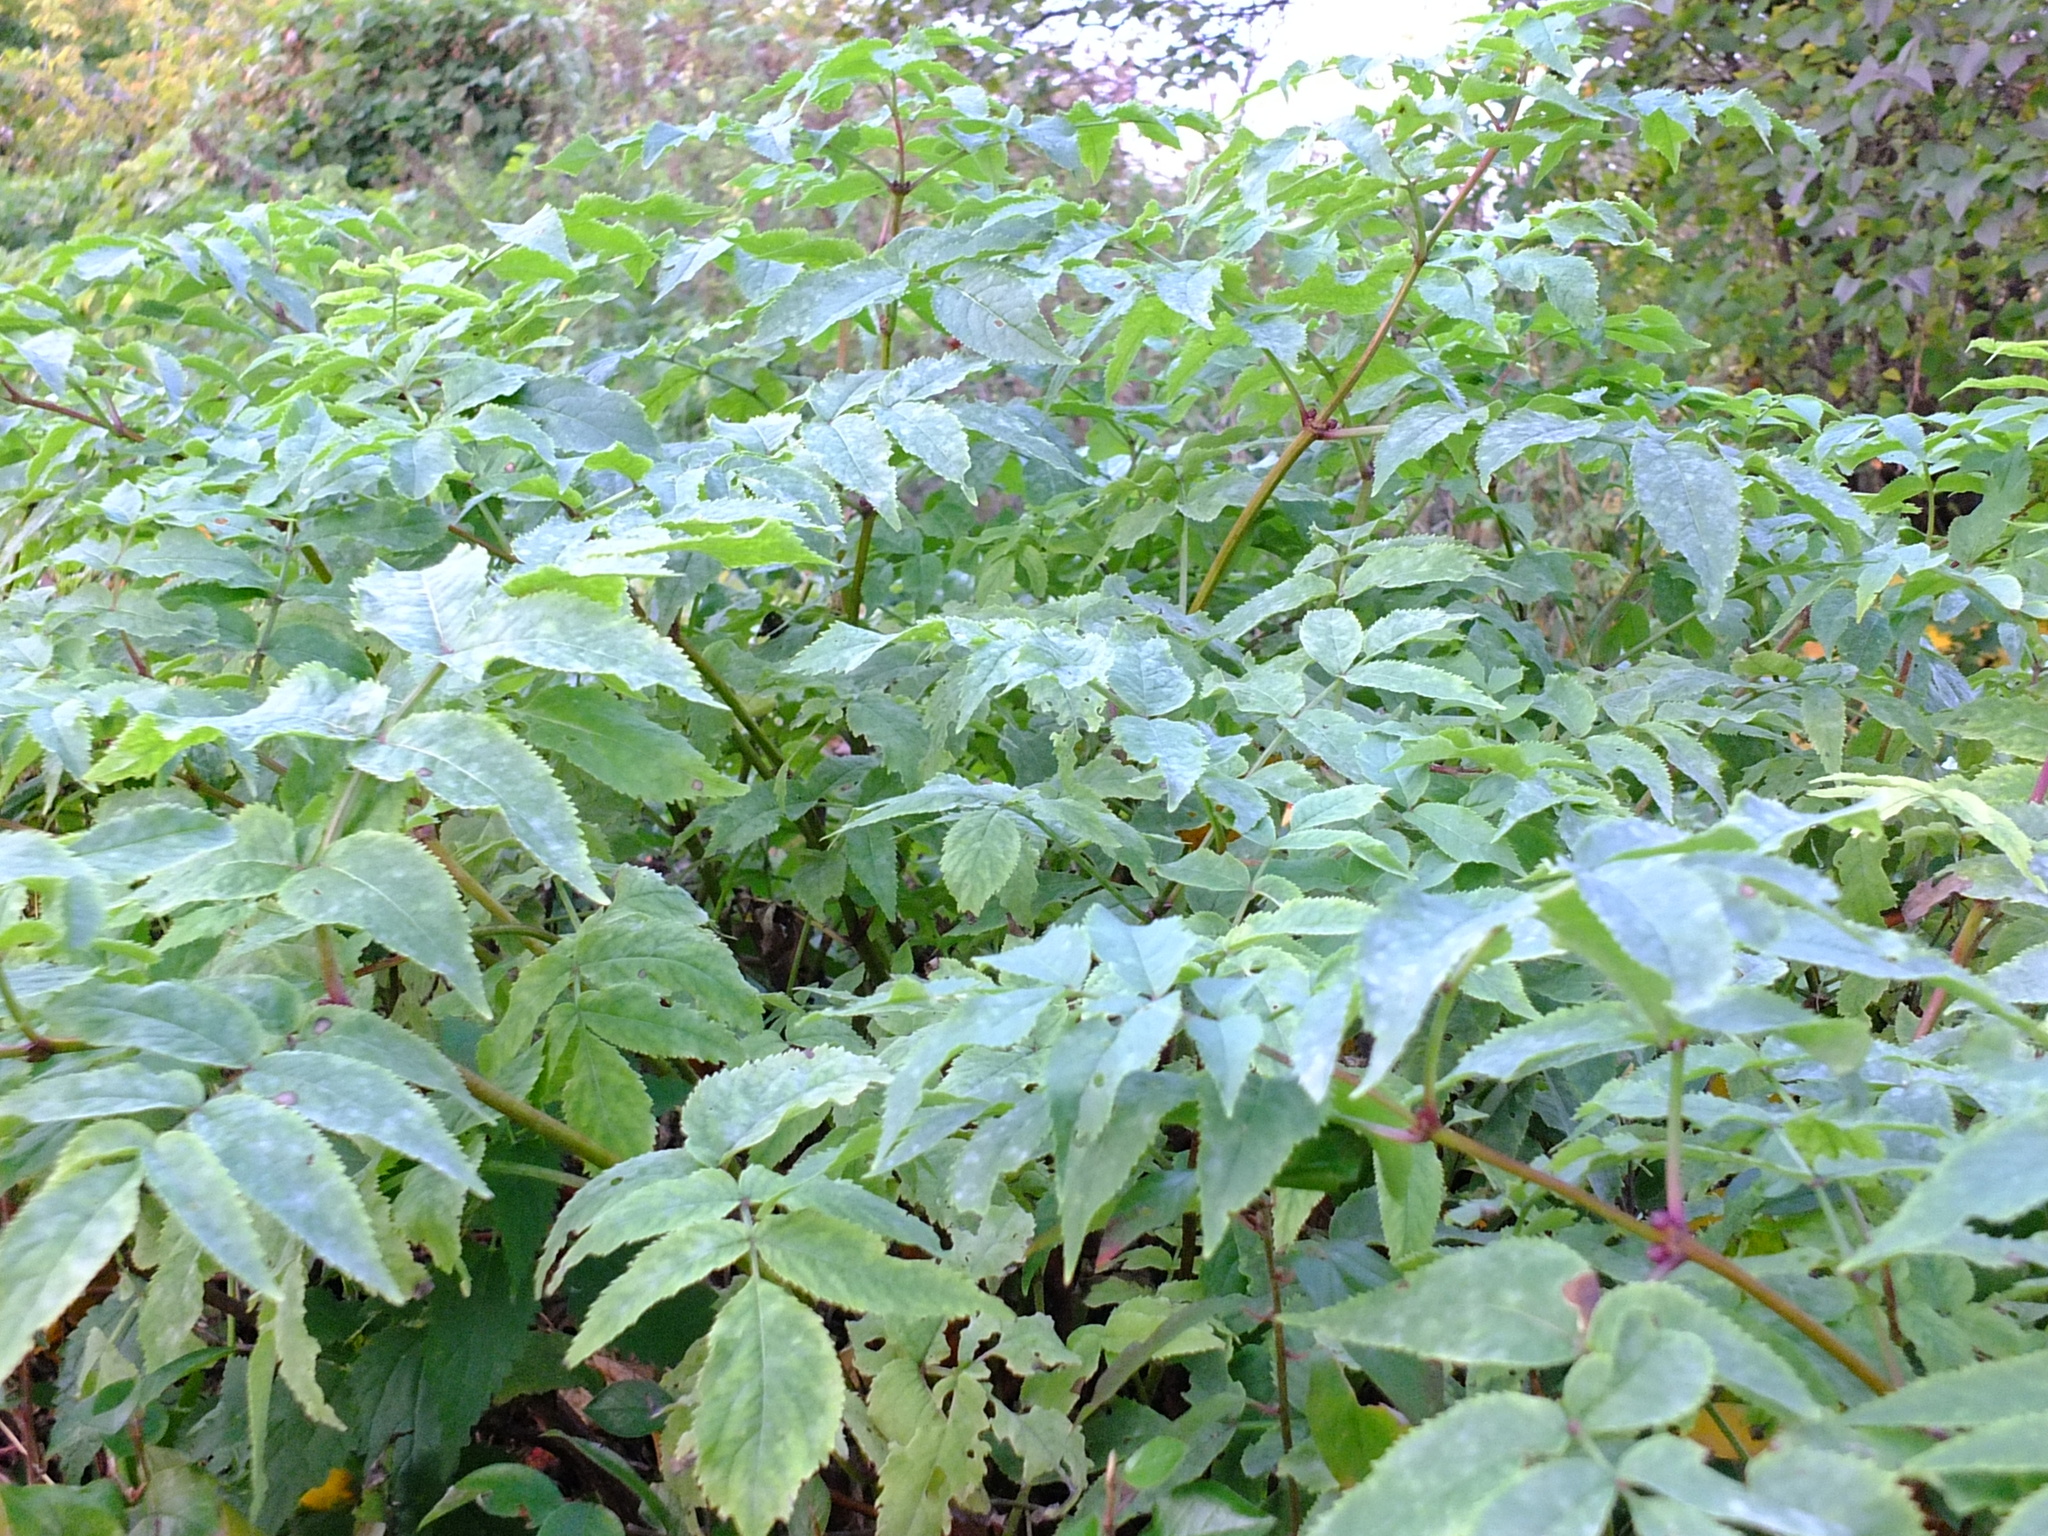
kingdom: Plantae
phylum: Tracheophyta
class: Magnoliopsida
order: Dipsacales
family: Viburnaceae
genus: Sambucus
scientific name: Sambucus racemosa
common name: Red-berried elder
